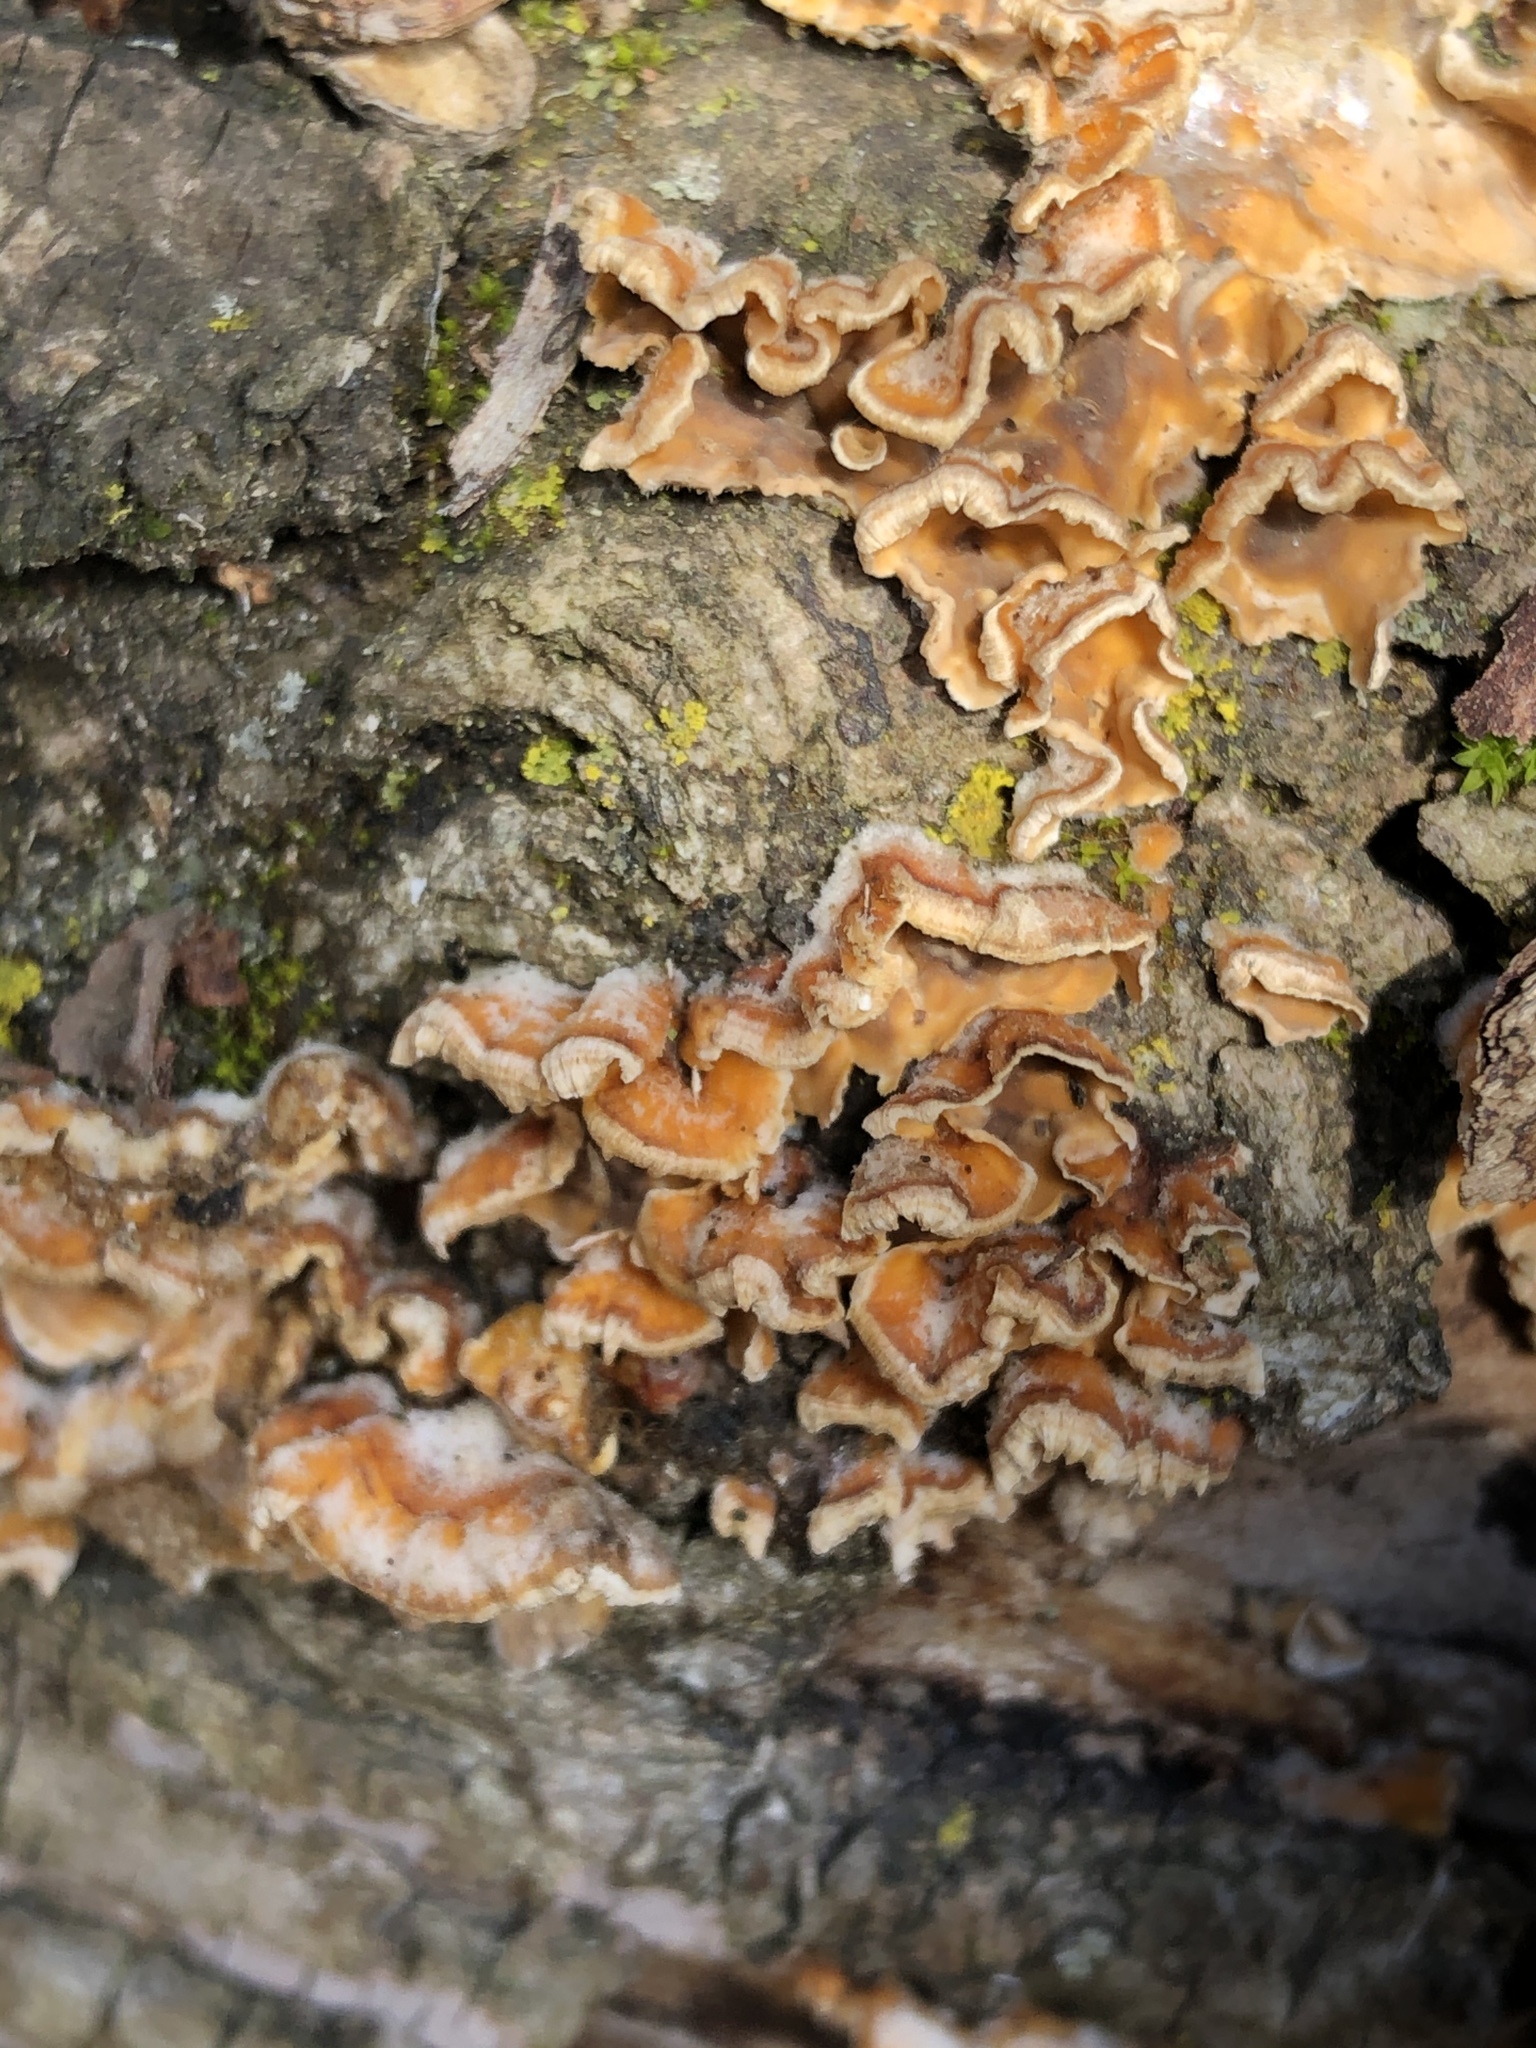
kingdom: Fungi
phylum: Basidiomycota
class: Agaricomycetes
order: Russulales
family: Stereaceae
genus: Stereum
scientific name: Stereum complicatum
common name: Crowded parchment
